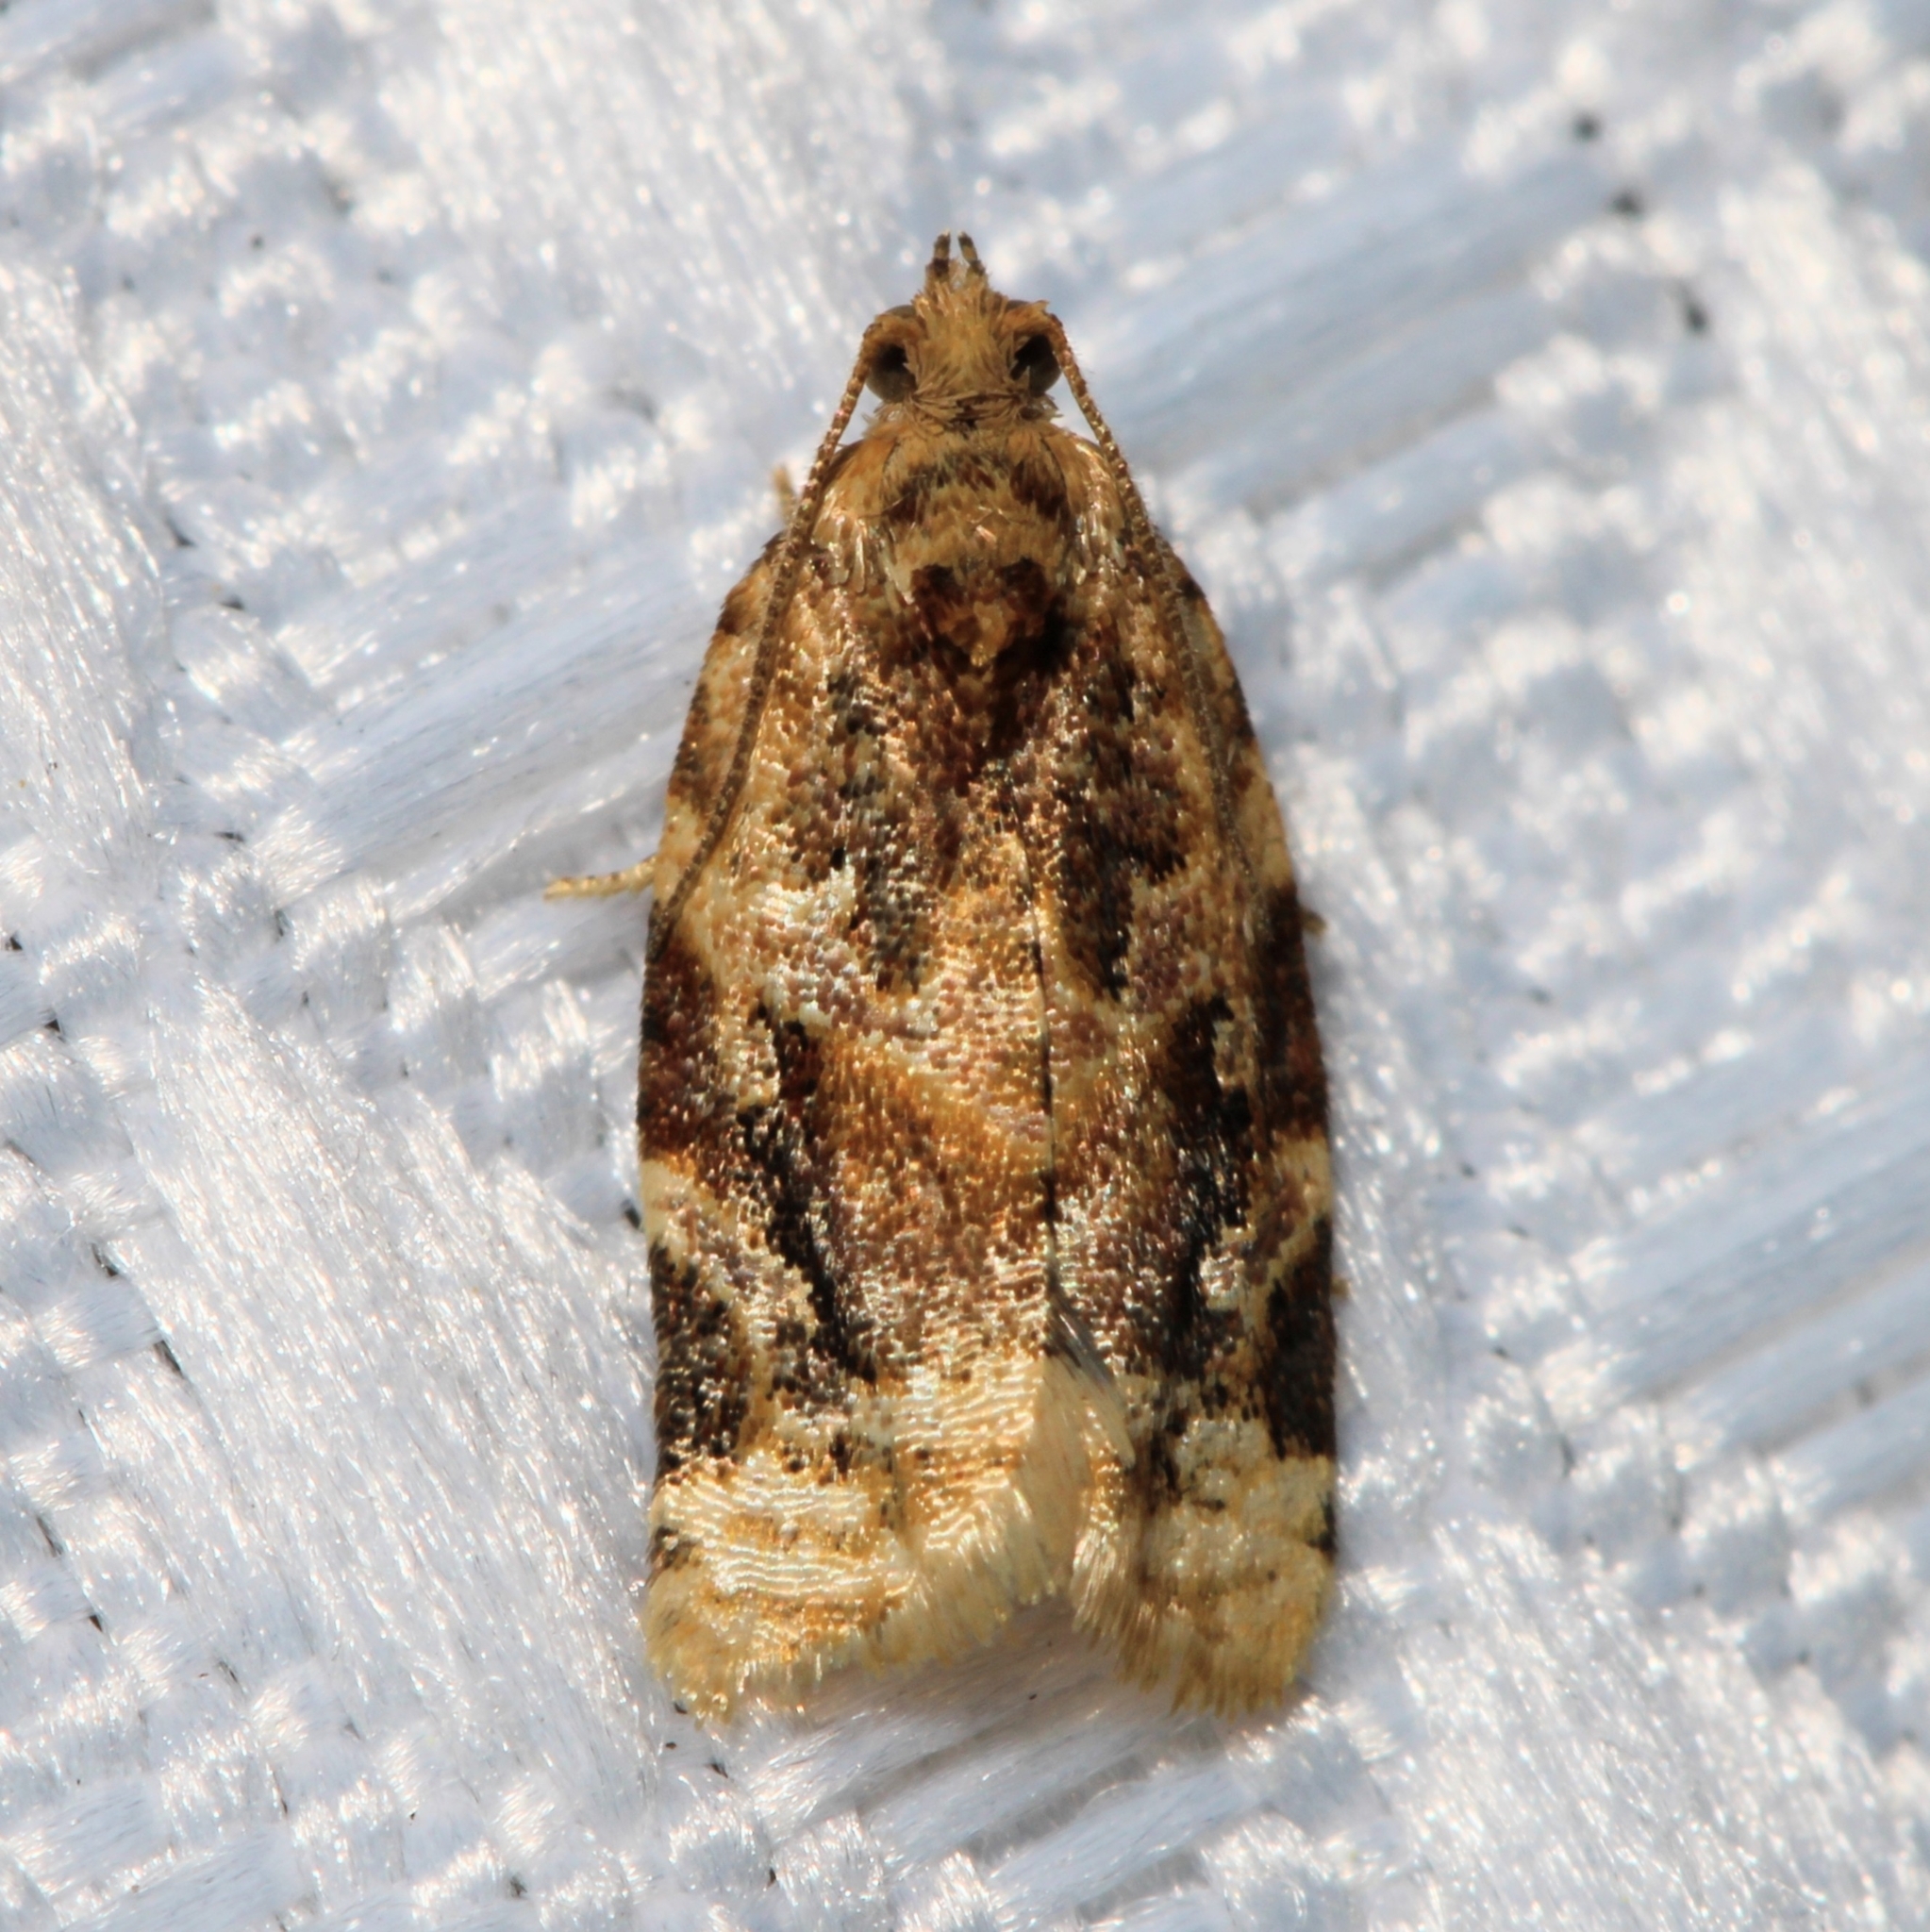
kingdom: Animalia
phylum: Arthropoda
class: Insecta
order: Lepidoptera
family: Tortricidae
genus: Argyrotaenia
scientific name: Argyrotaenia velutinana
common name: Red-banded leafroller moth
